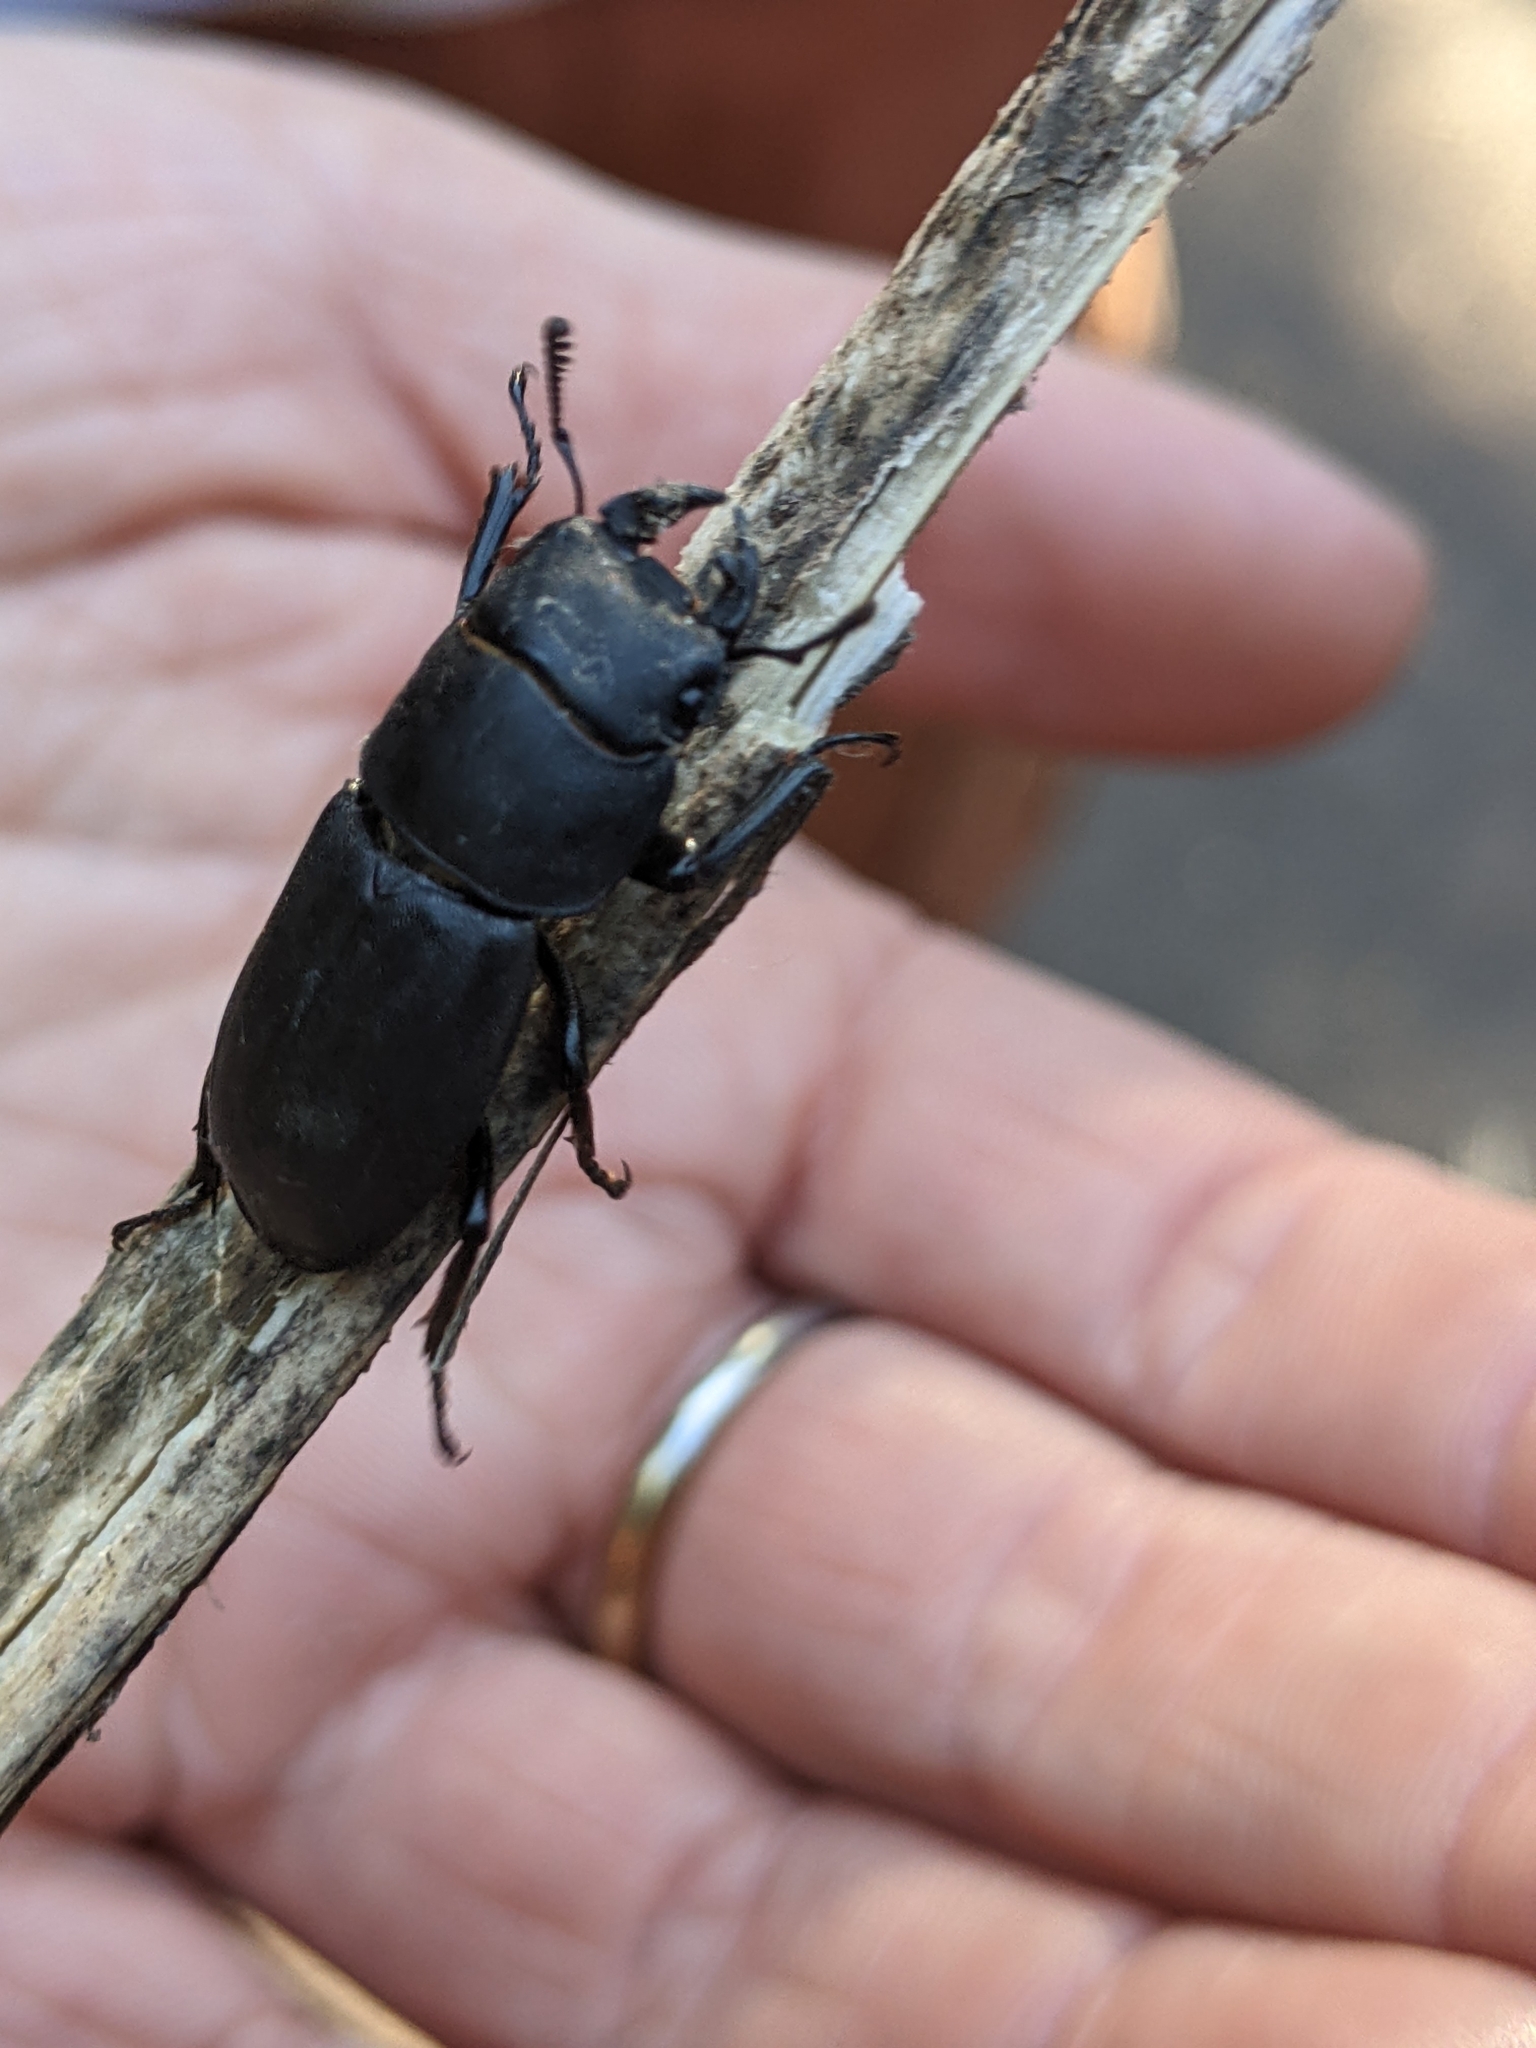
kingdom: Animalia
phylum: Arthropoda
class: Insecta
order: Coleoptera
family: Lucanidae
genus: Dorcus
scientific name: Dorcus parallelipipedus
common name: Lesser stag beetle
